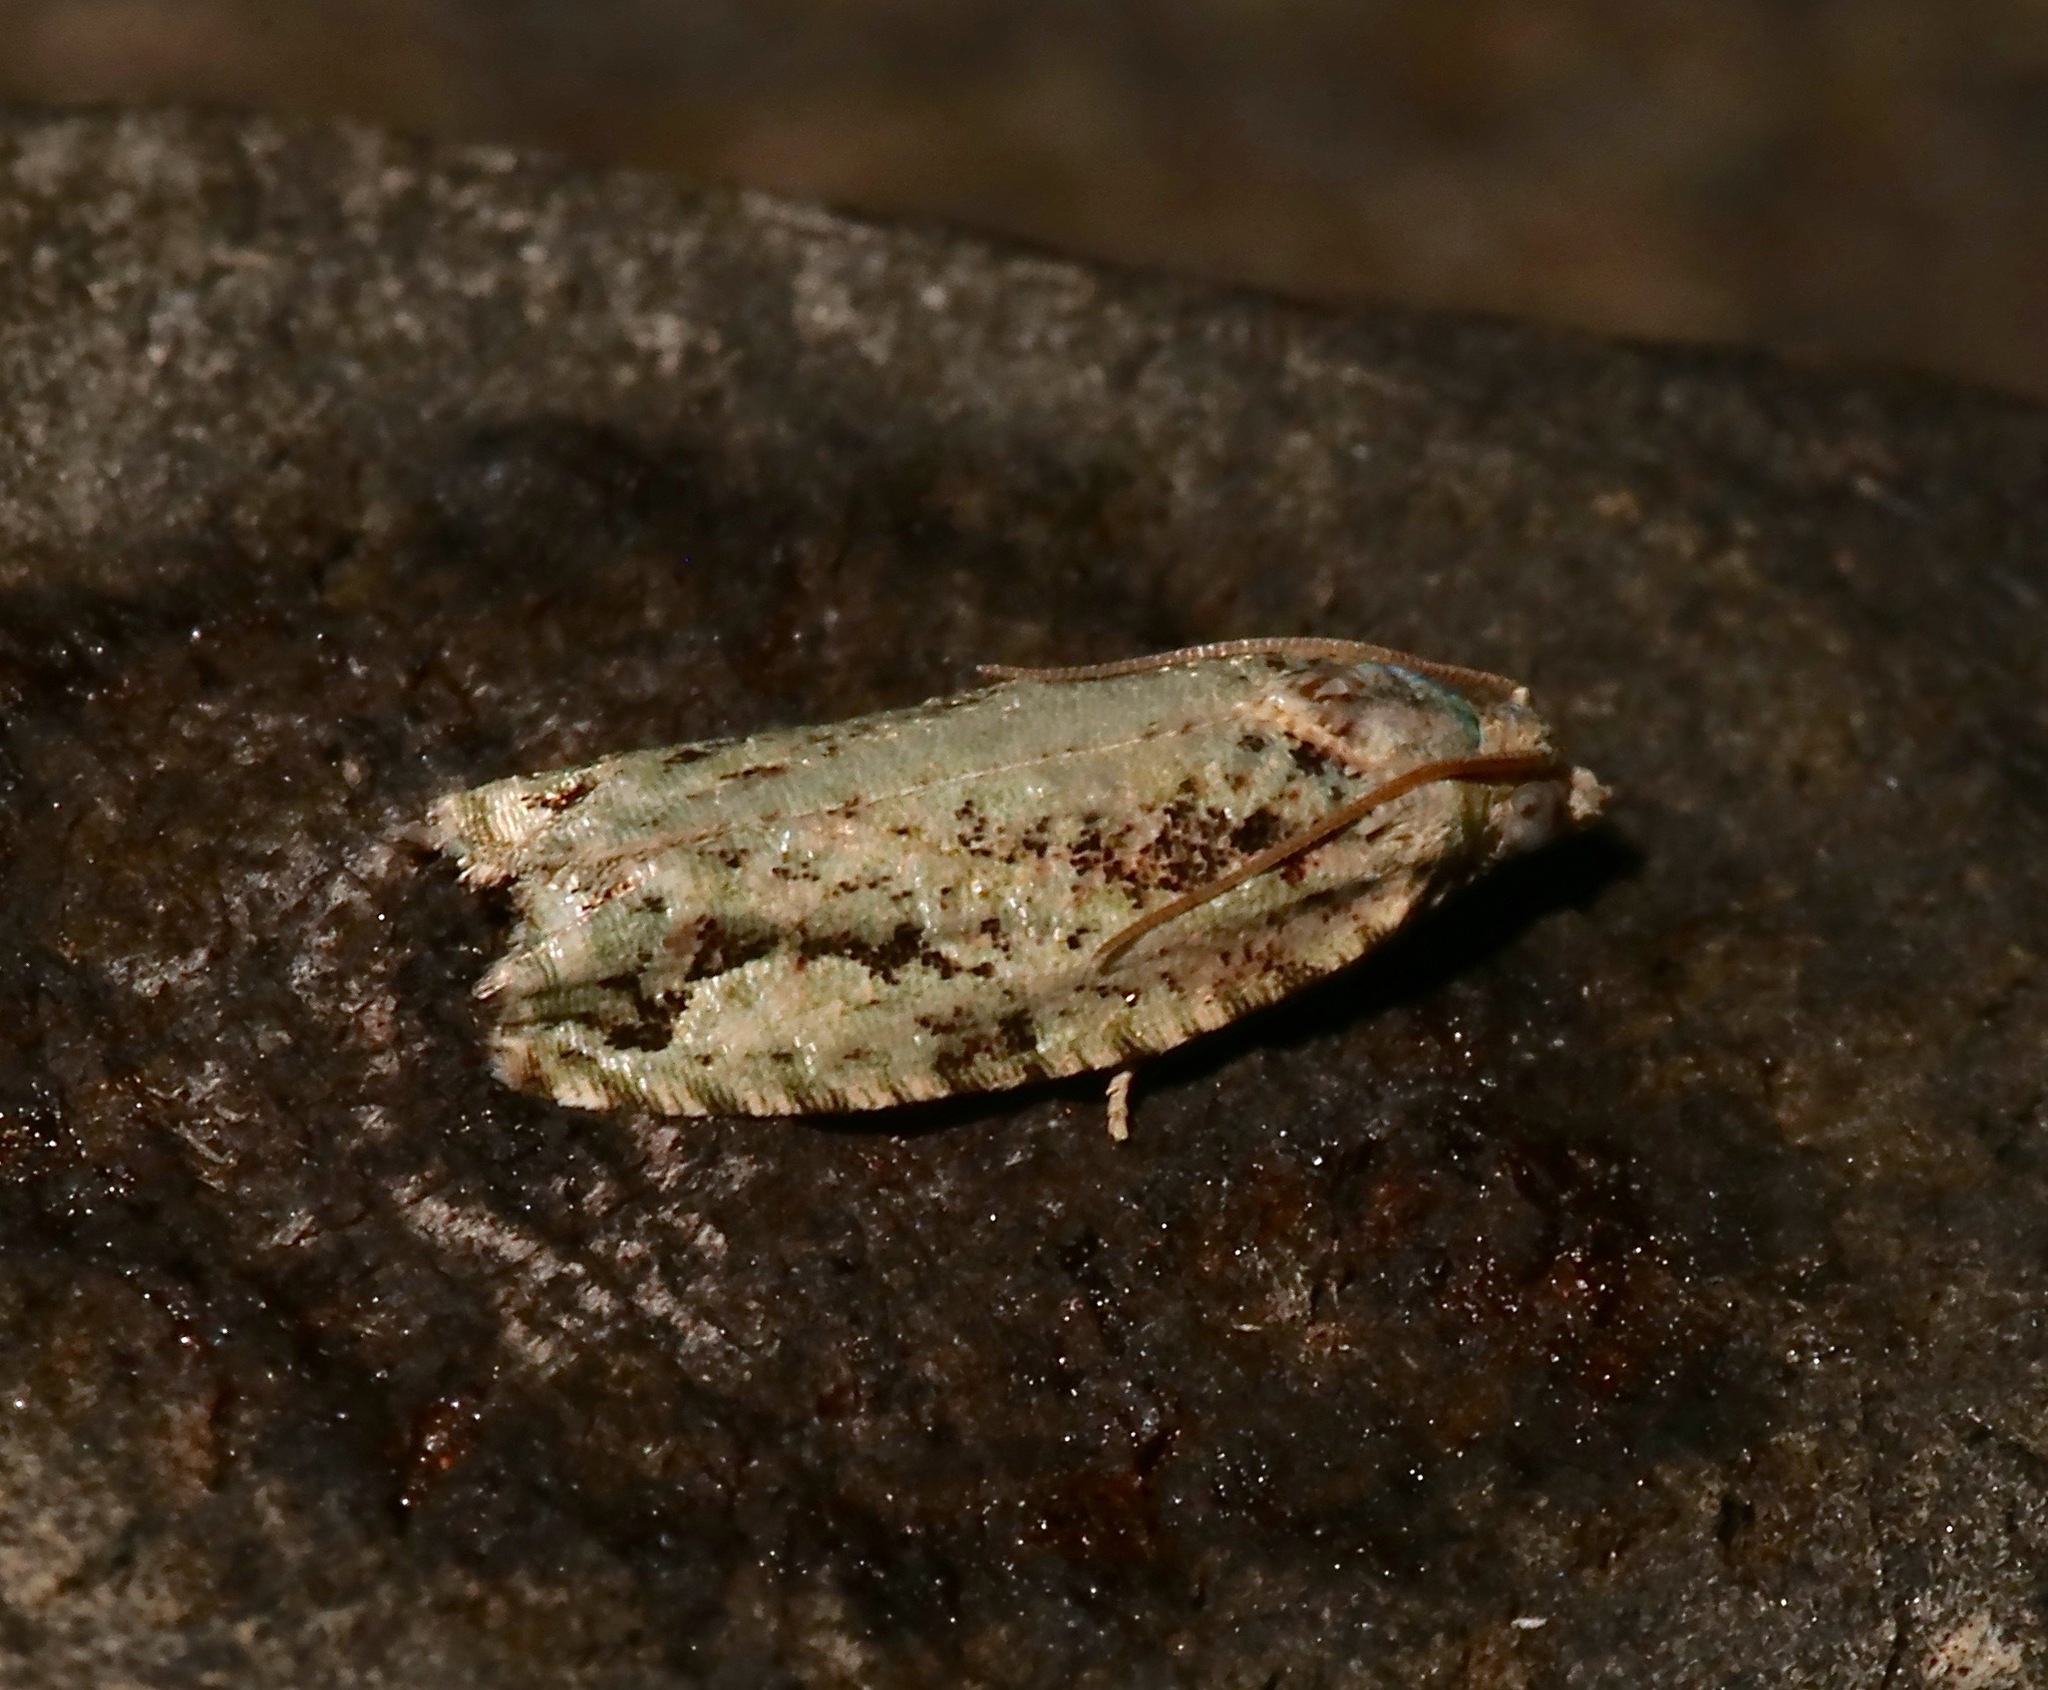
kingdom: Animalia
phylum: Arthropoda
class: Insecta
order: Lepidoptera
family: Tortricidae
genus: Proteoteras
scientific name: Proteoteras moffatiana
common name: Maple bud borer moth
